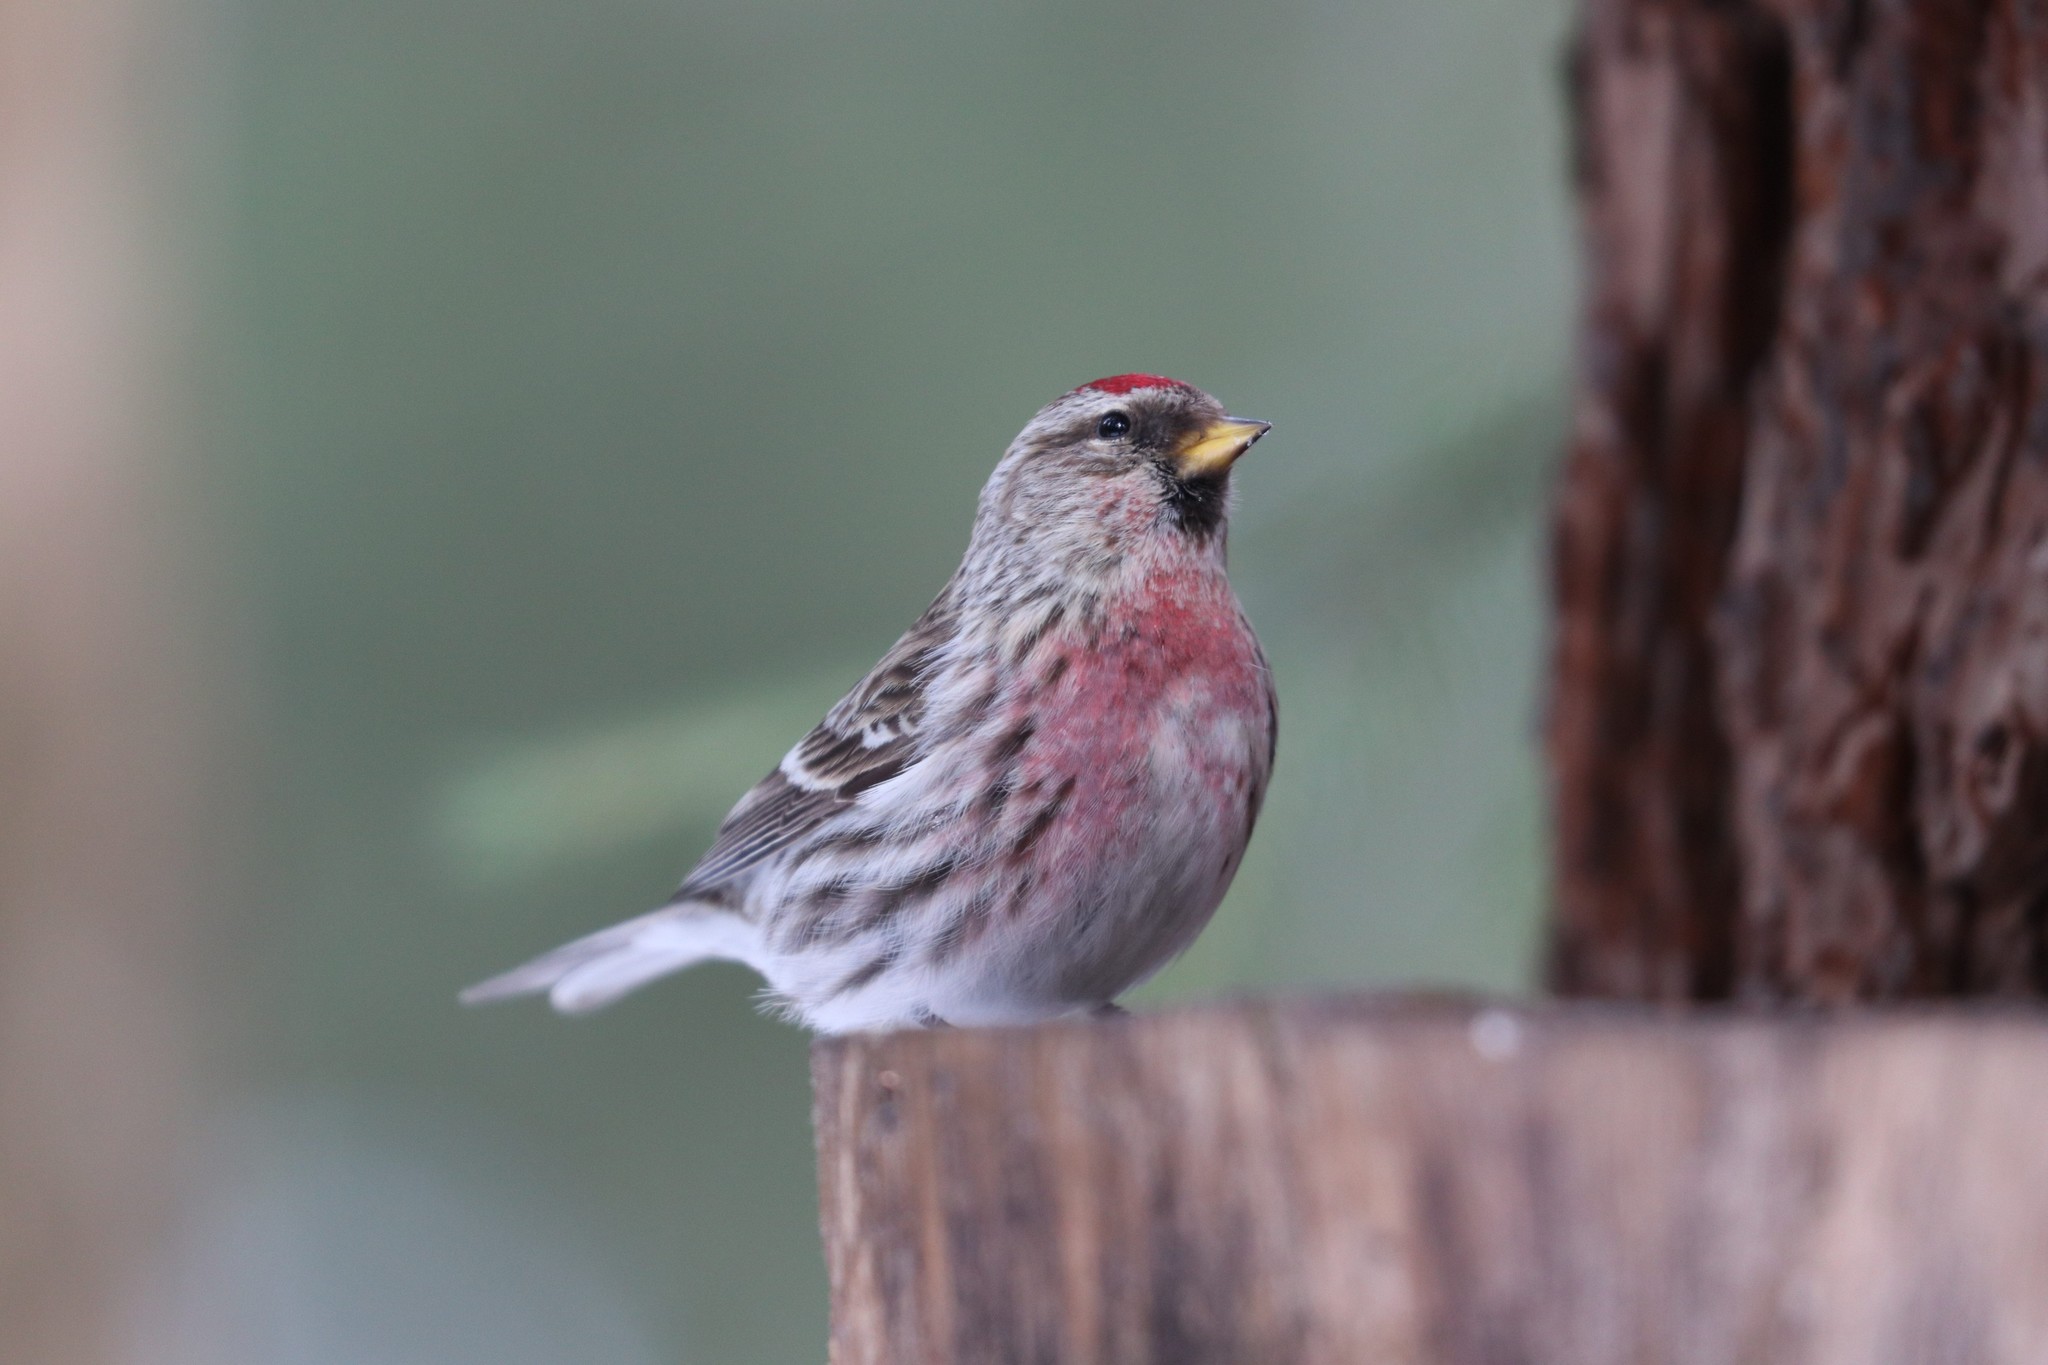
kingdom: Animalia
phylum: Chordata
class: Aves
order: Passeriformes
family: Fringillidae
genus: Acanthis
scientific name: Acanthis flammea
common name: Common redpoll
